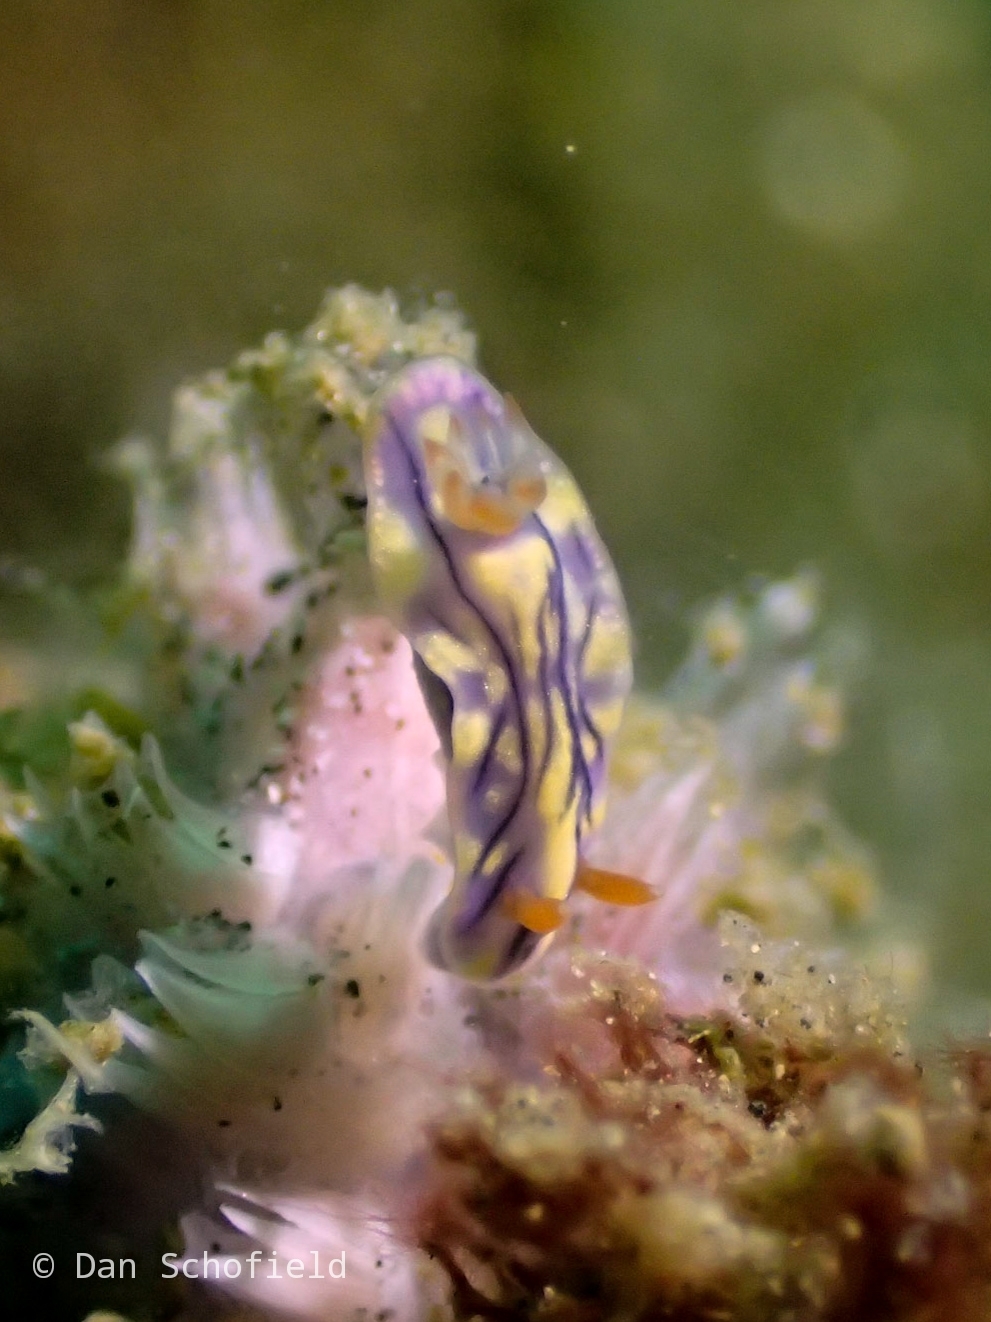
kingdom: Animalia
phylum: Mollusca
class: Gastropoda
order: Nudibranchia
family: Chromodorididae
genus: Hypselodoris
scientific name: Hypselodoris zephyra
